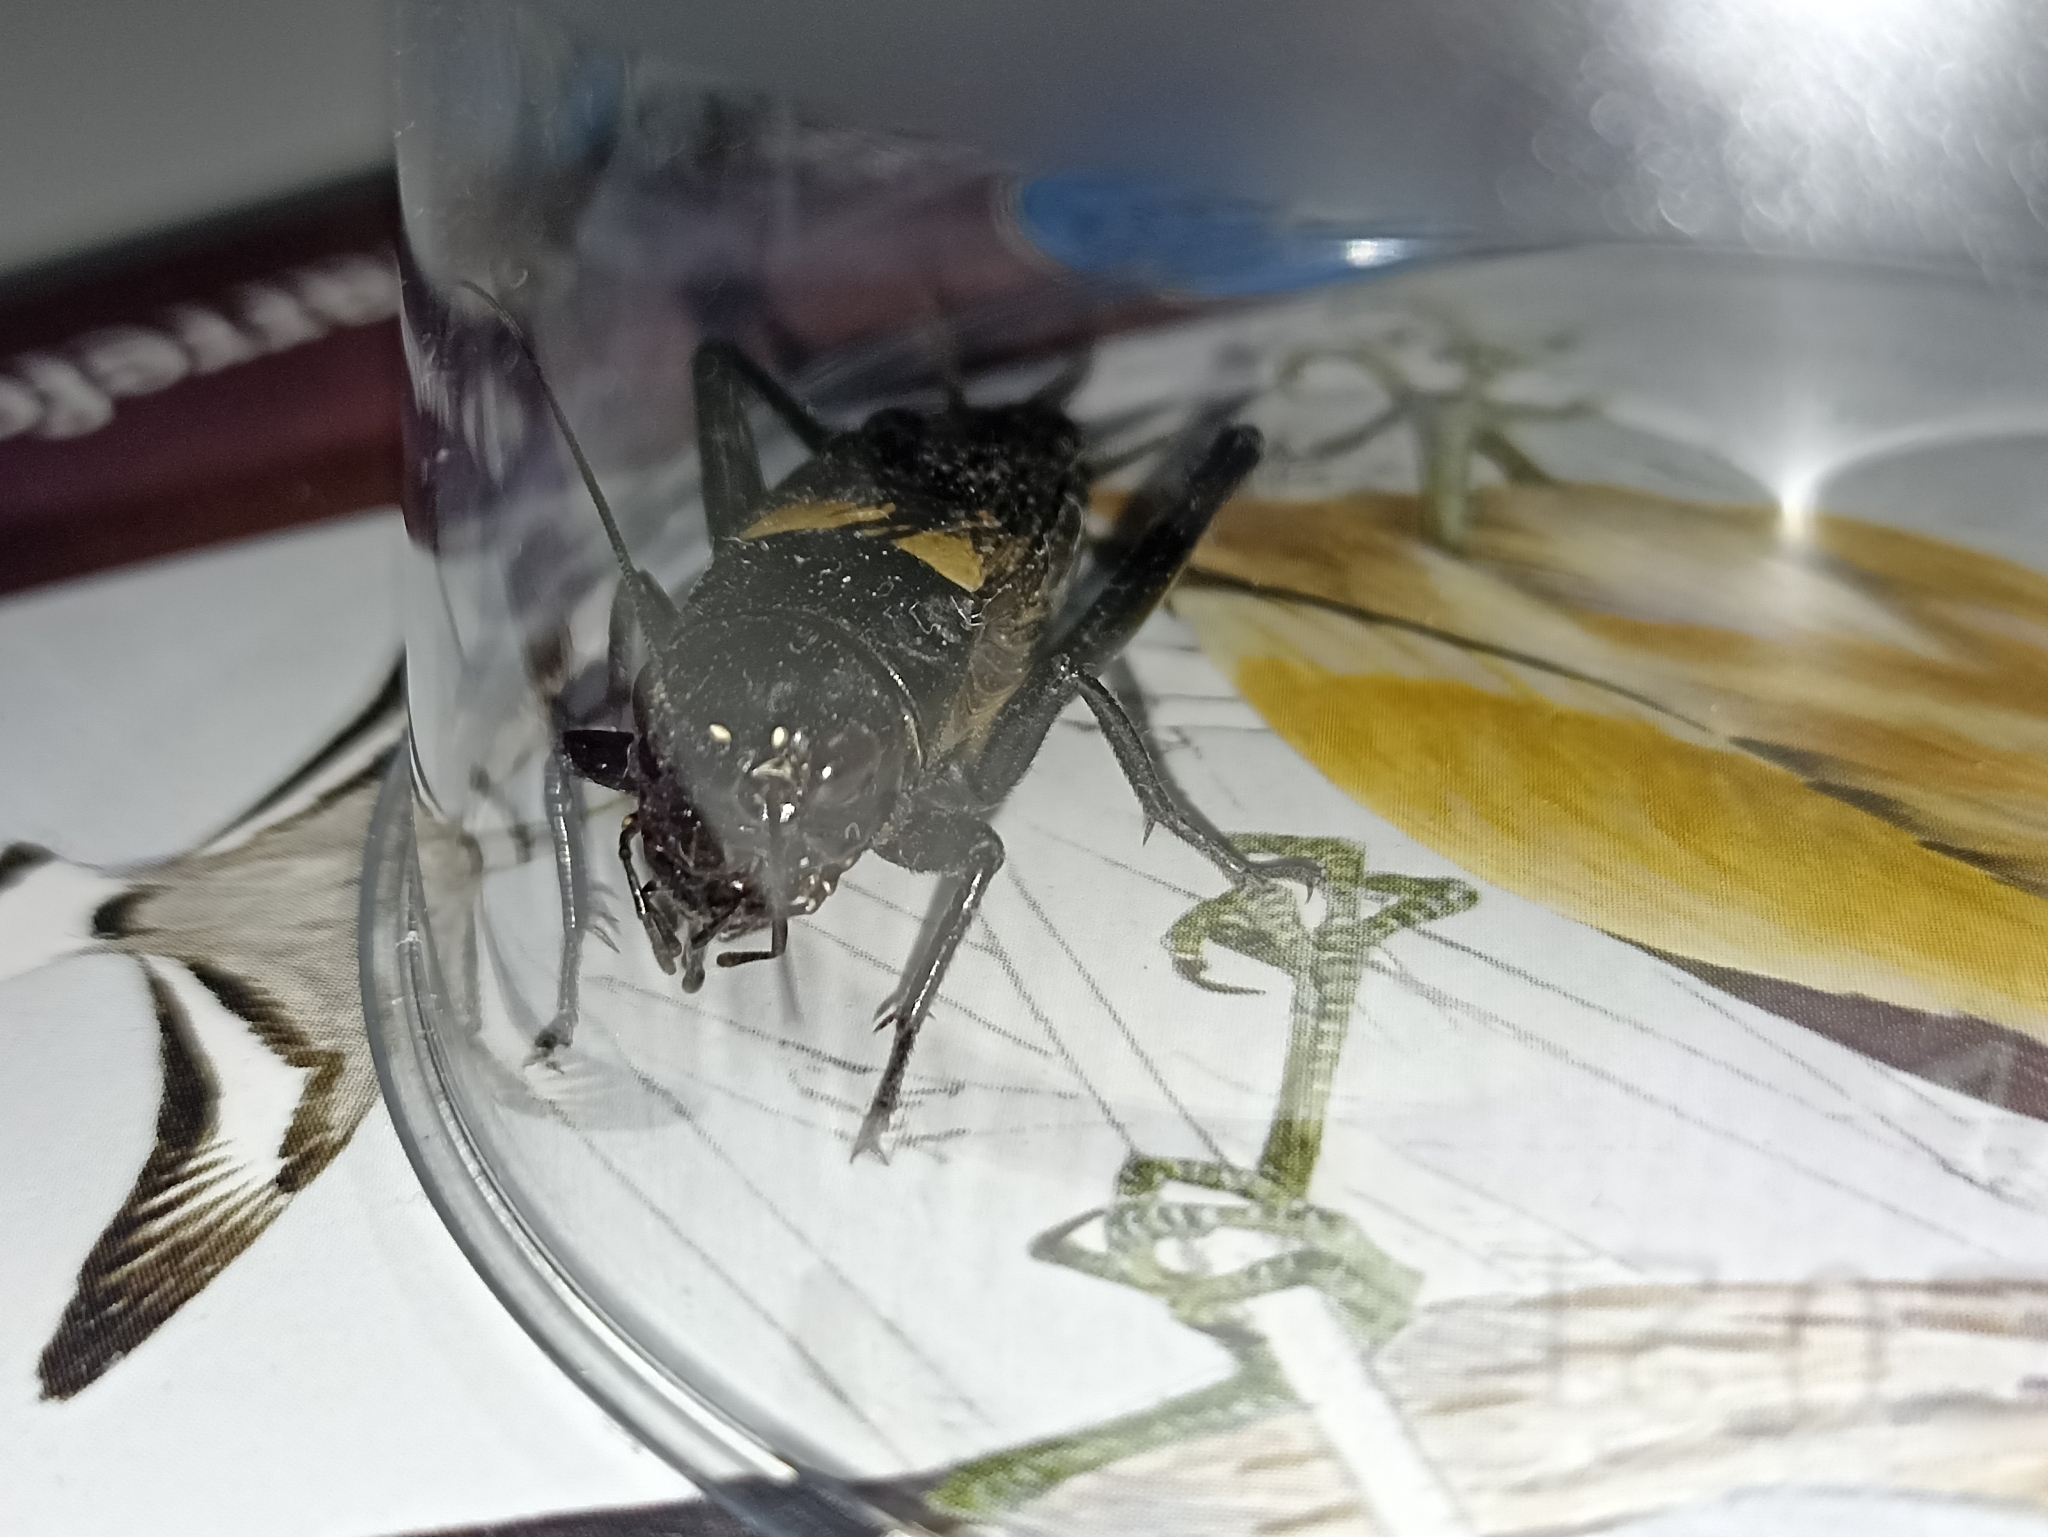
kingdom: Animalia
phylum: Arthropoda
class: Insecta
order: Orthoptera
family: Gryllidae
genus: Gryllus
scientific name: Gryllus bimaculatus
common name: Two-spotted cricket
